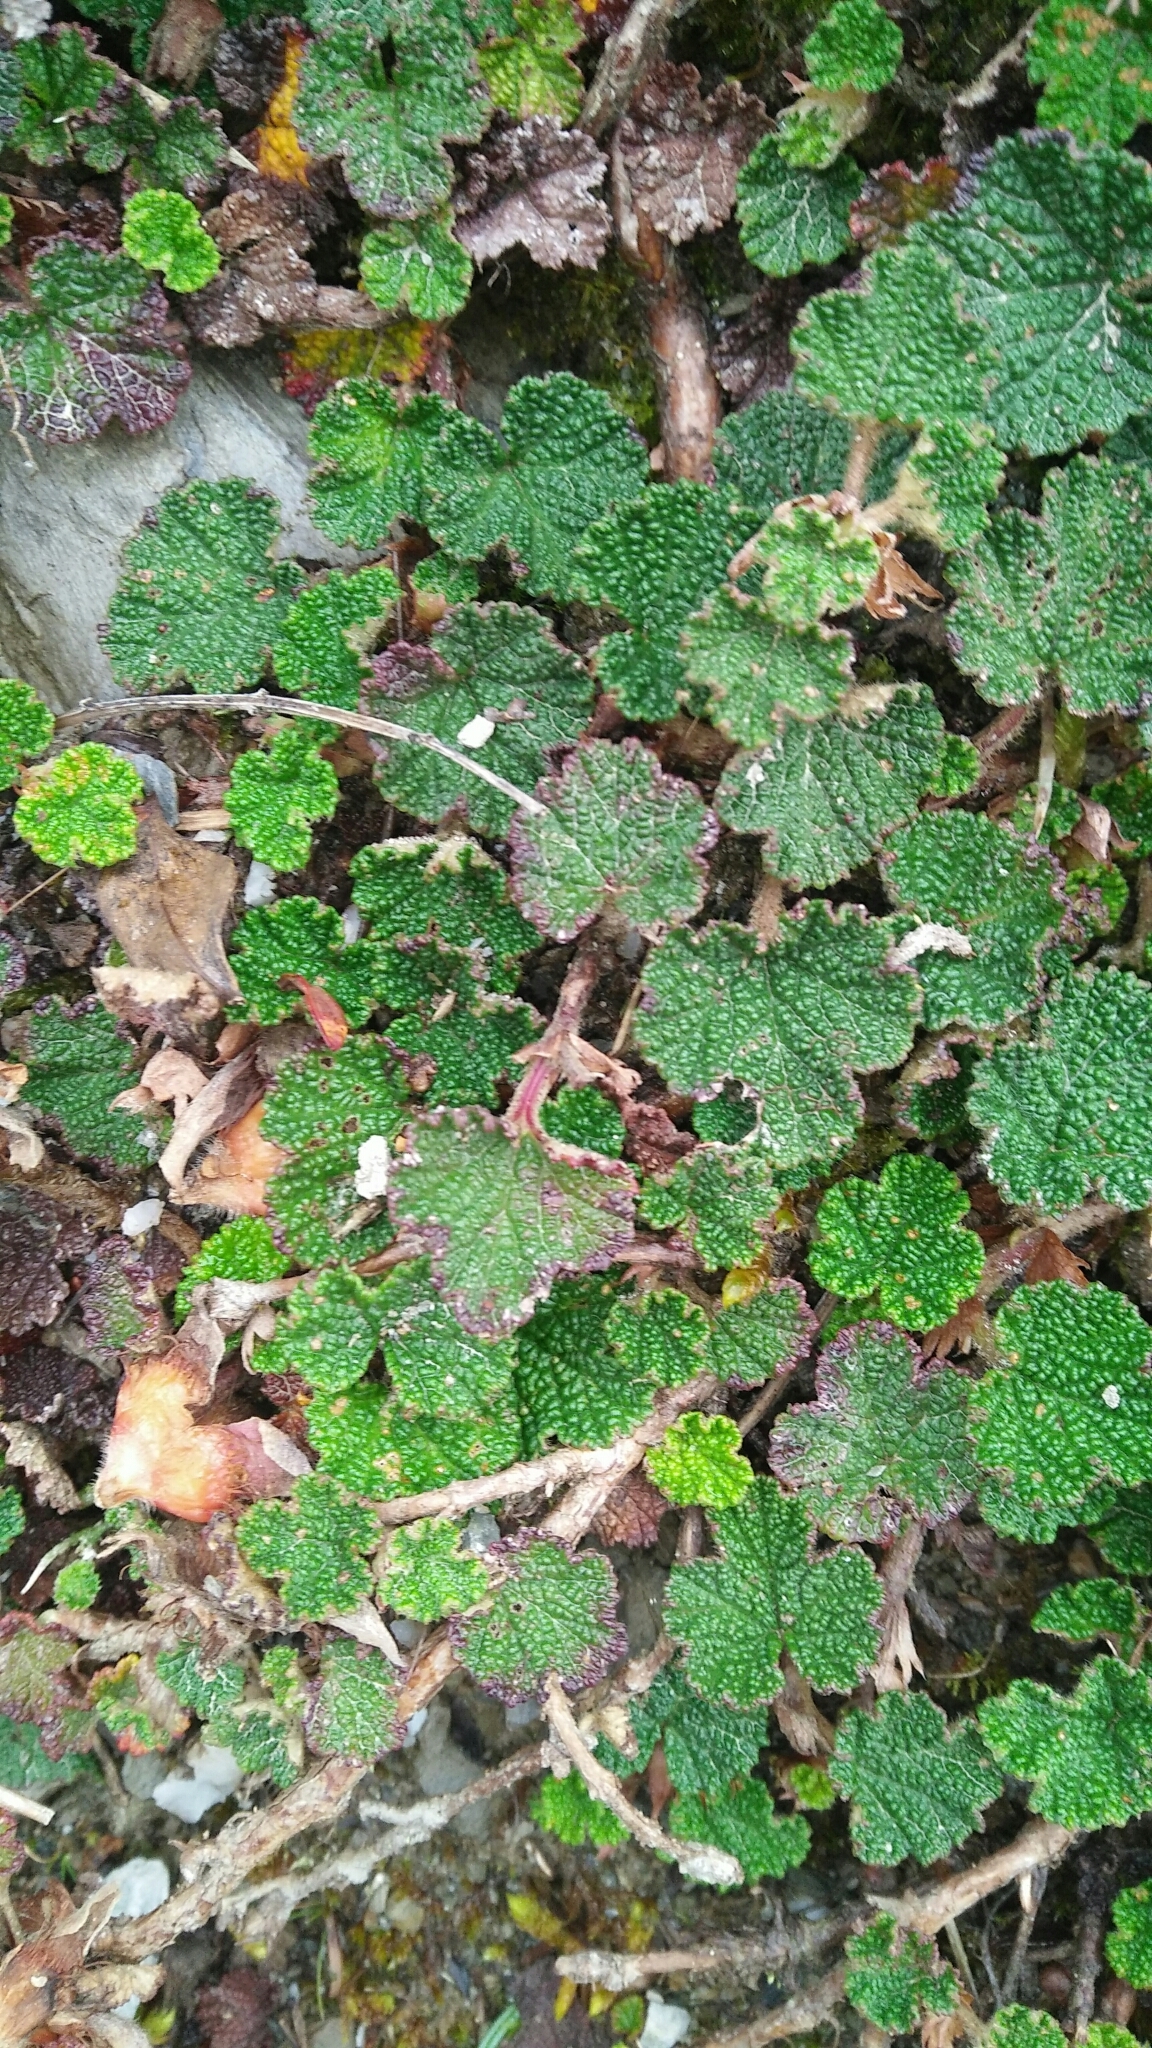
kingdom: Plantae
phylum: Tracheophyta
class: Magnoliopsida
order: Rosales
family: Rosaceae
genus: Rubus
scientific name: Rubus rolfei
